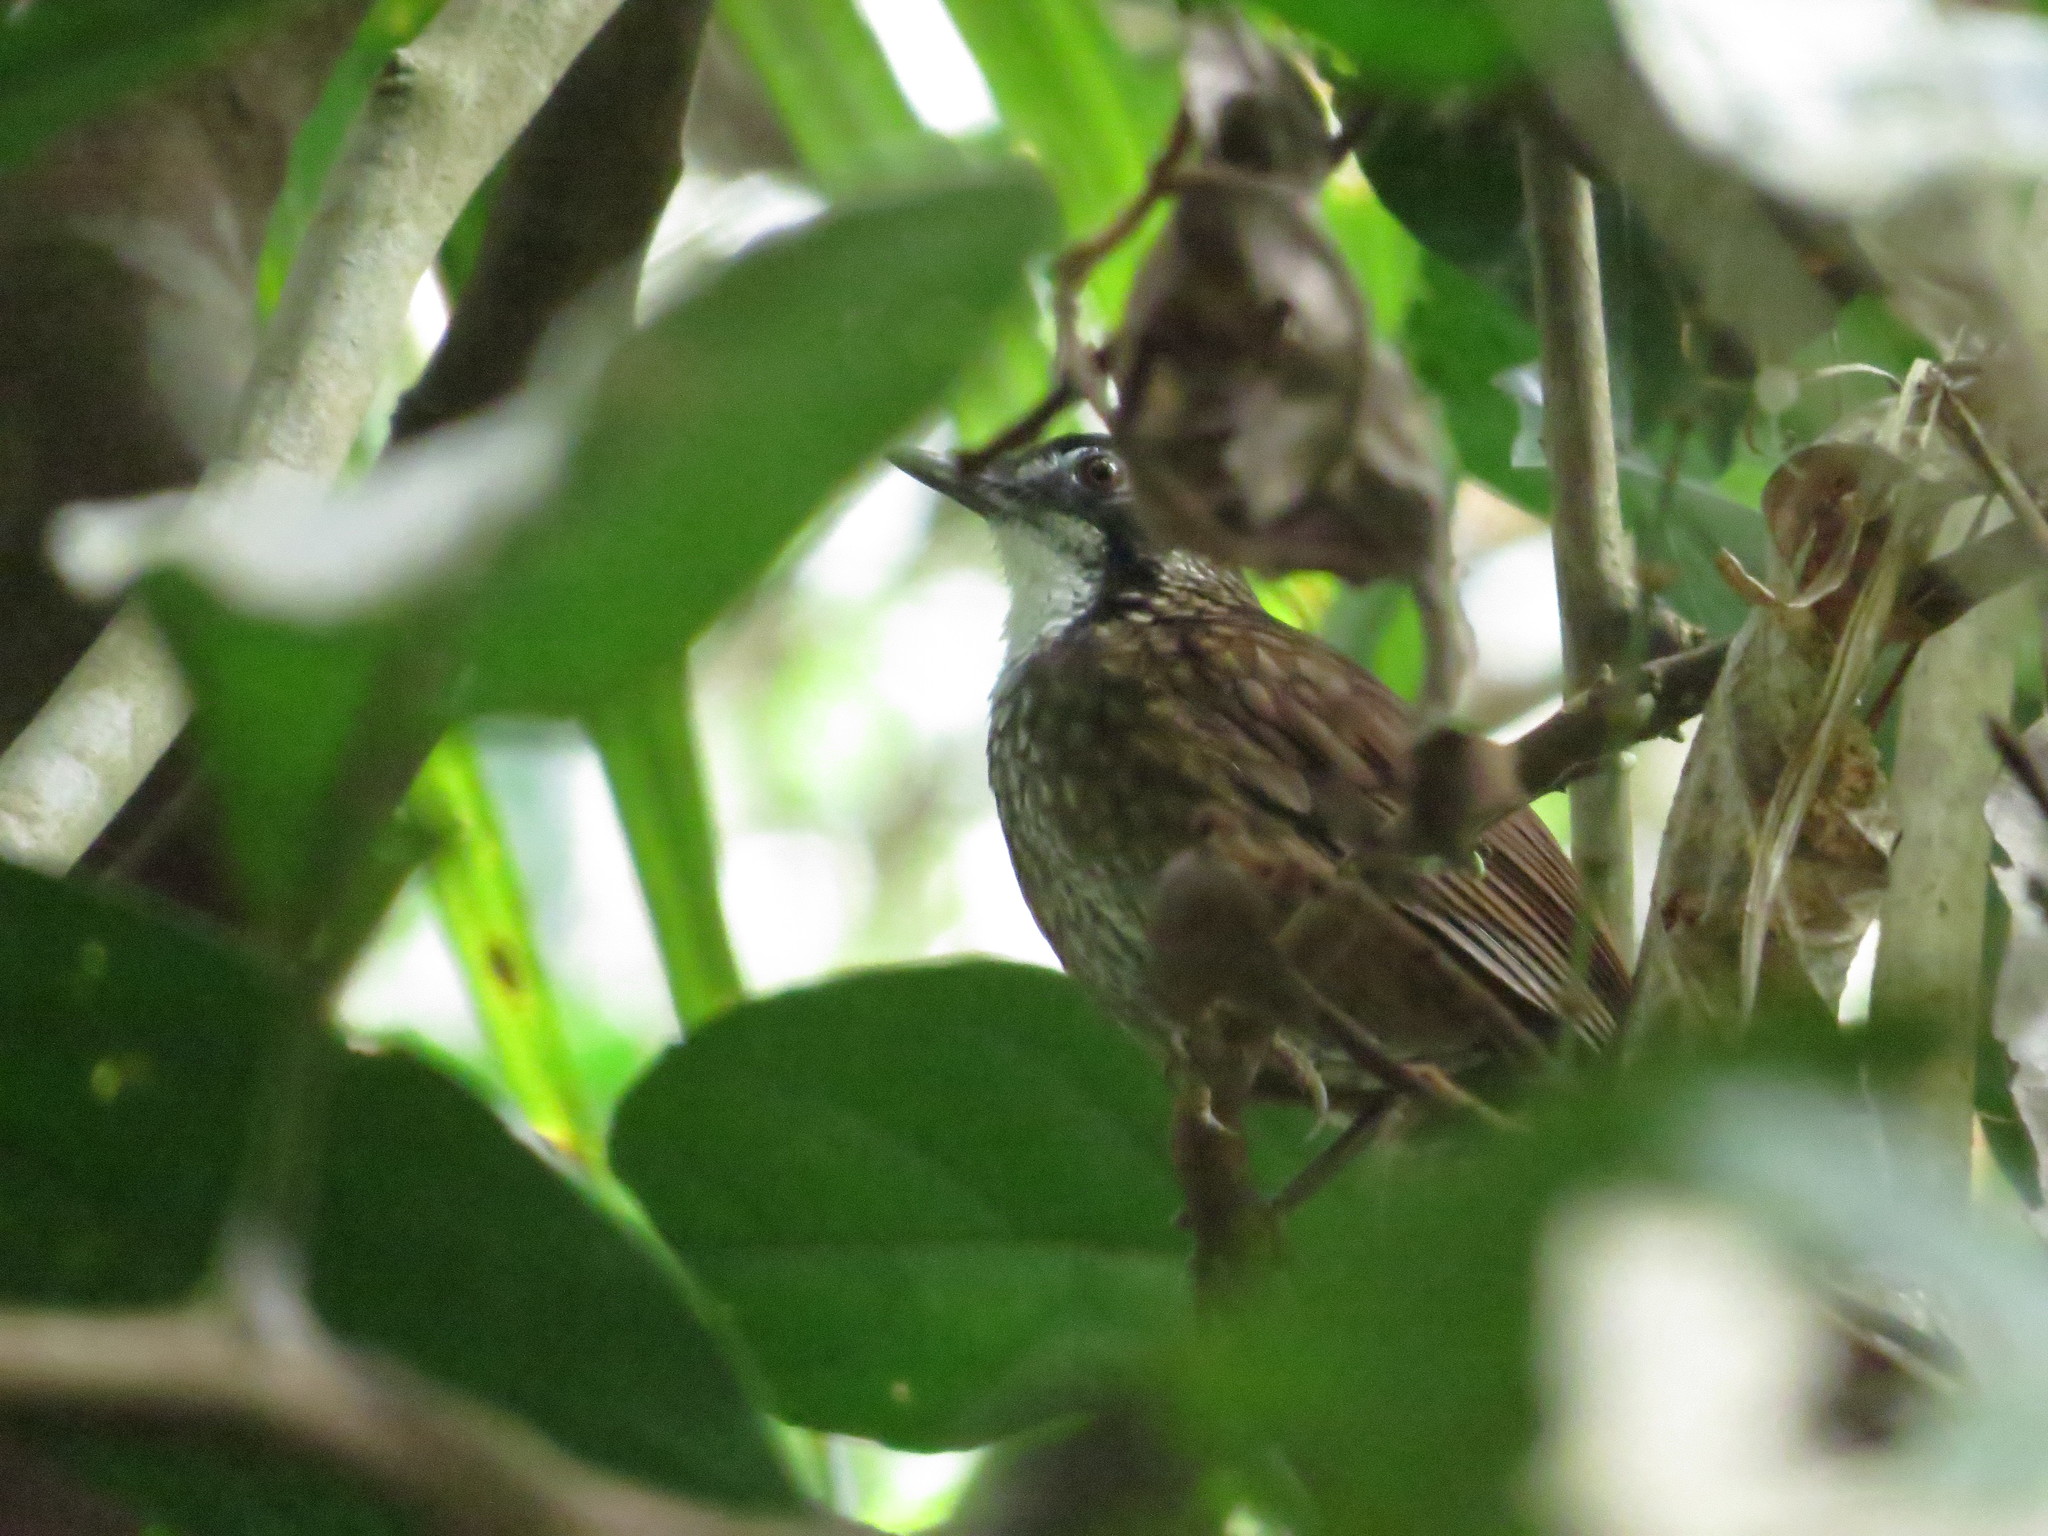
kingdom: Animalia
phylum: Chordata
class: Aves
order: Passeriformes
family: Pellorneidae
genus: Napothera
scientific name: Napothera macrodactyla
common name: Large wren-babbler
